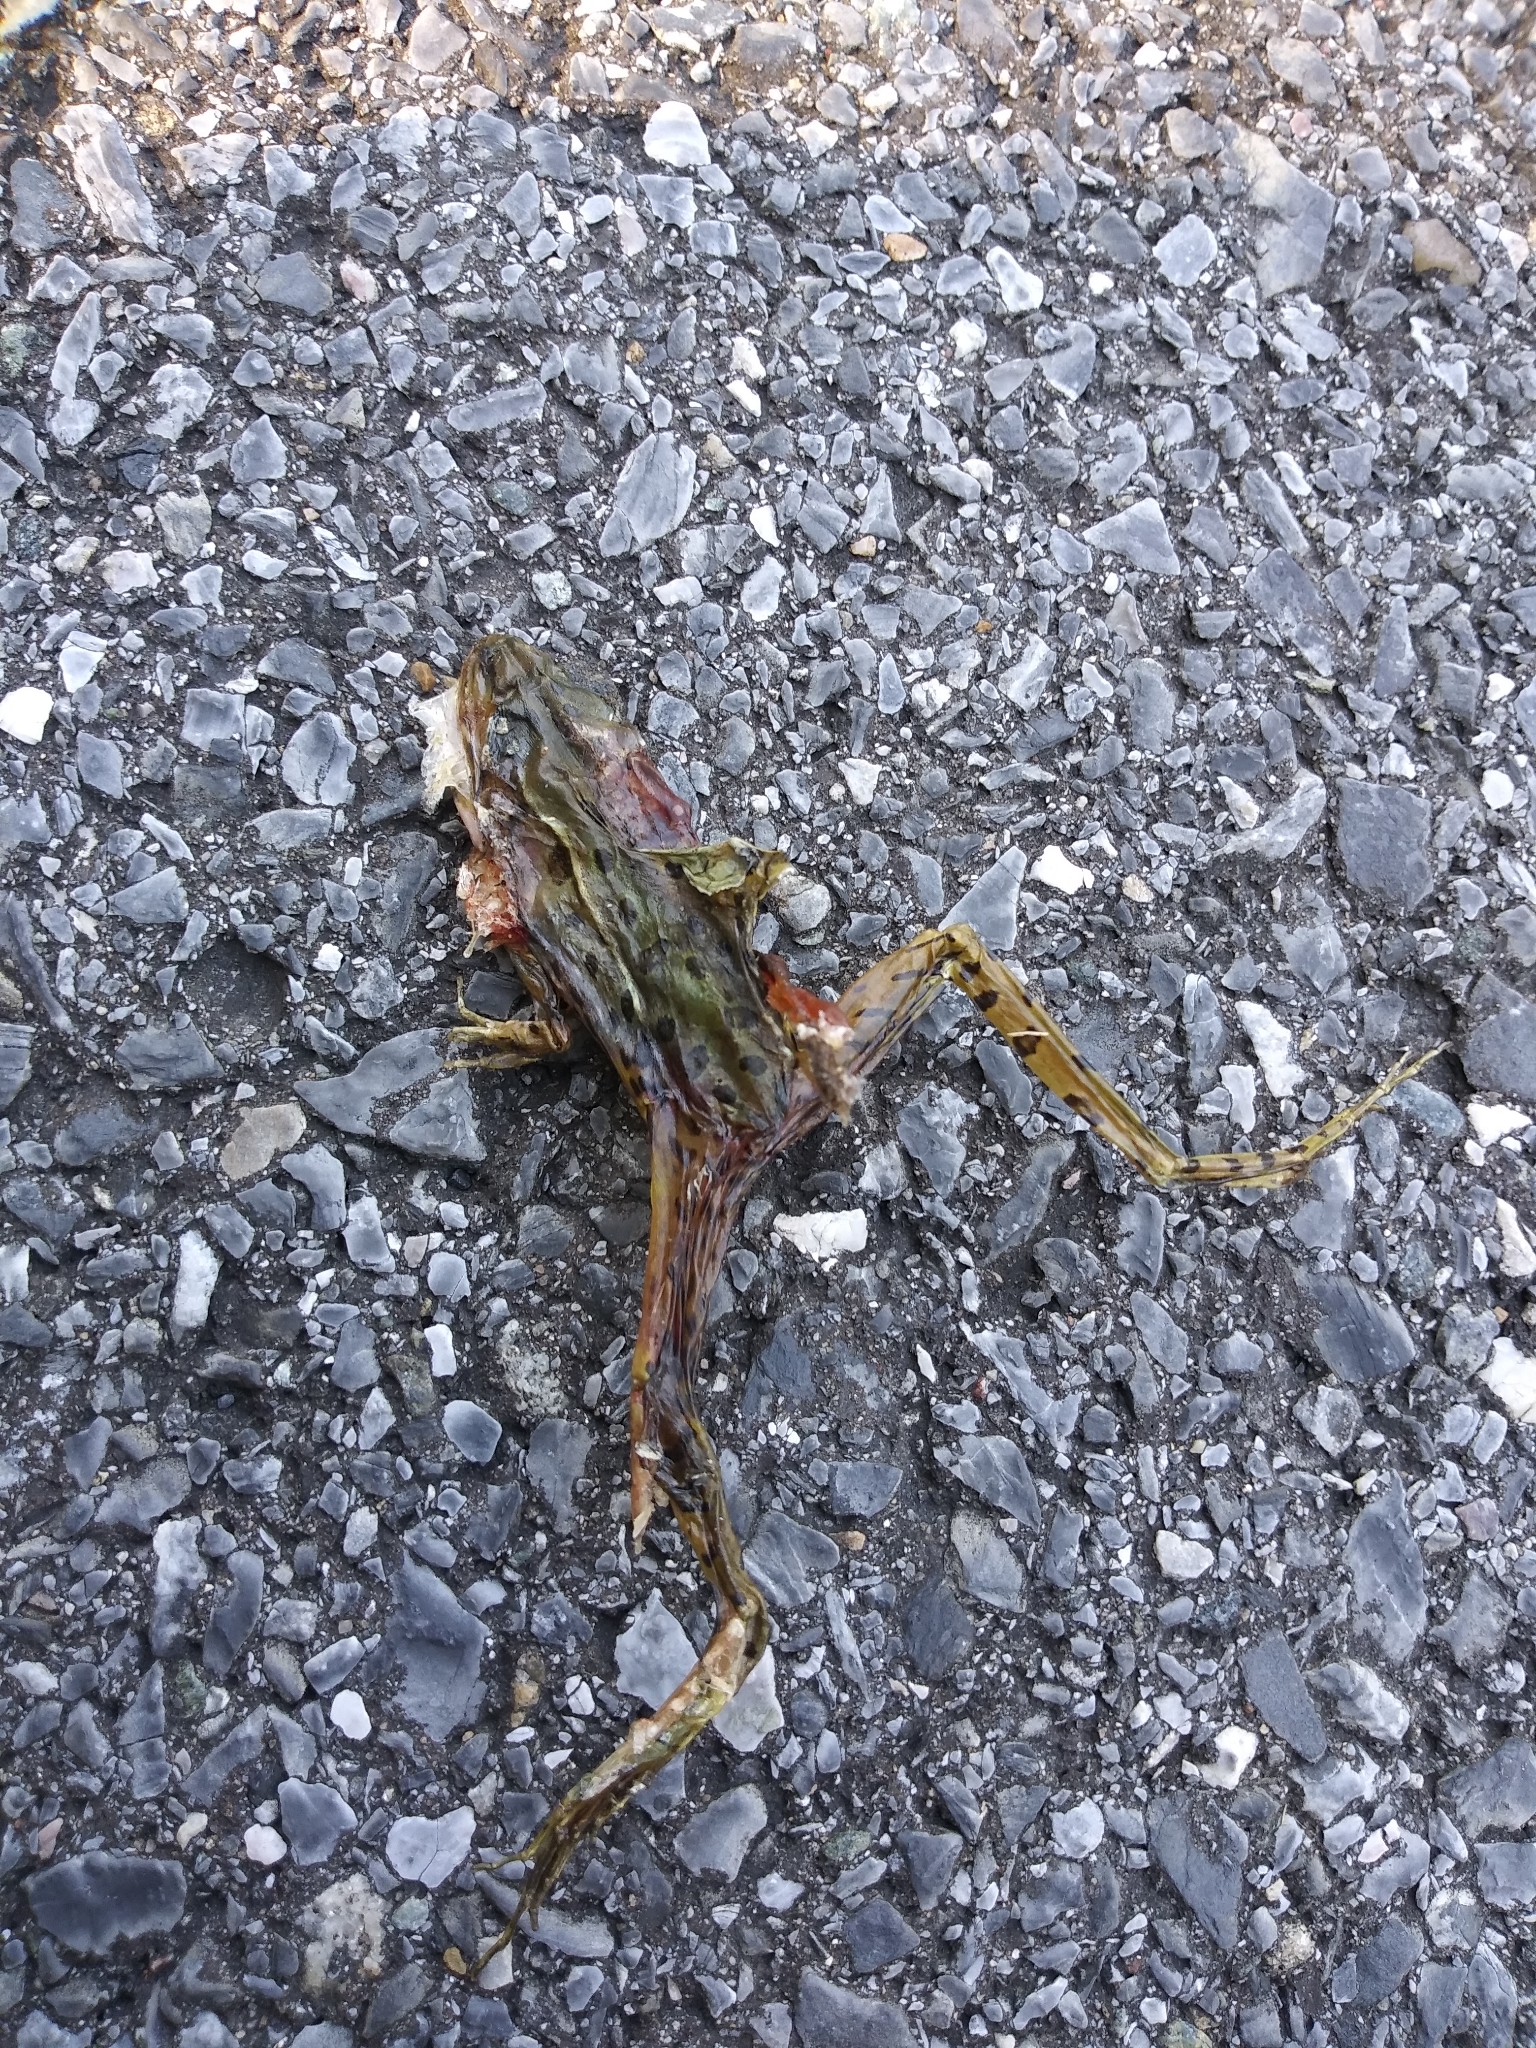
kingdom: Animalia
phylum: Chordata
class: Amphibia
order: Anura
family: Ranidae
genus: Lithobates
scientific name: Lithobates sphenocephalus
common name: Southern leopard frog
